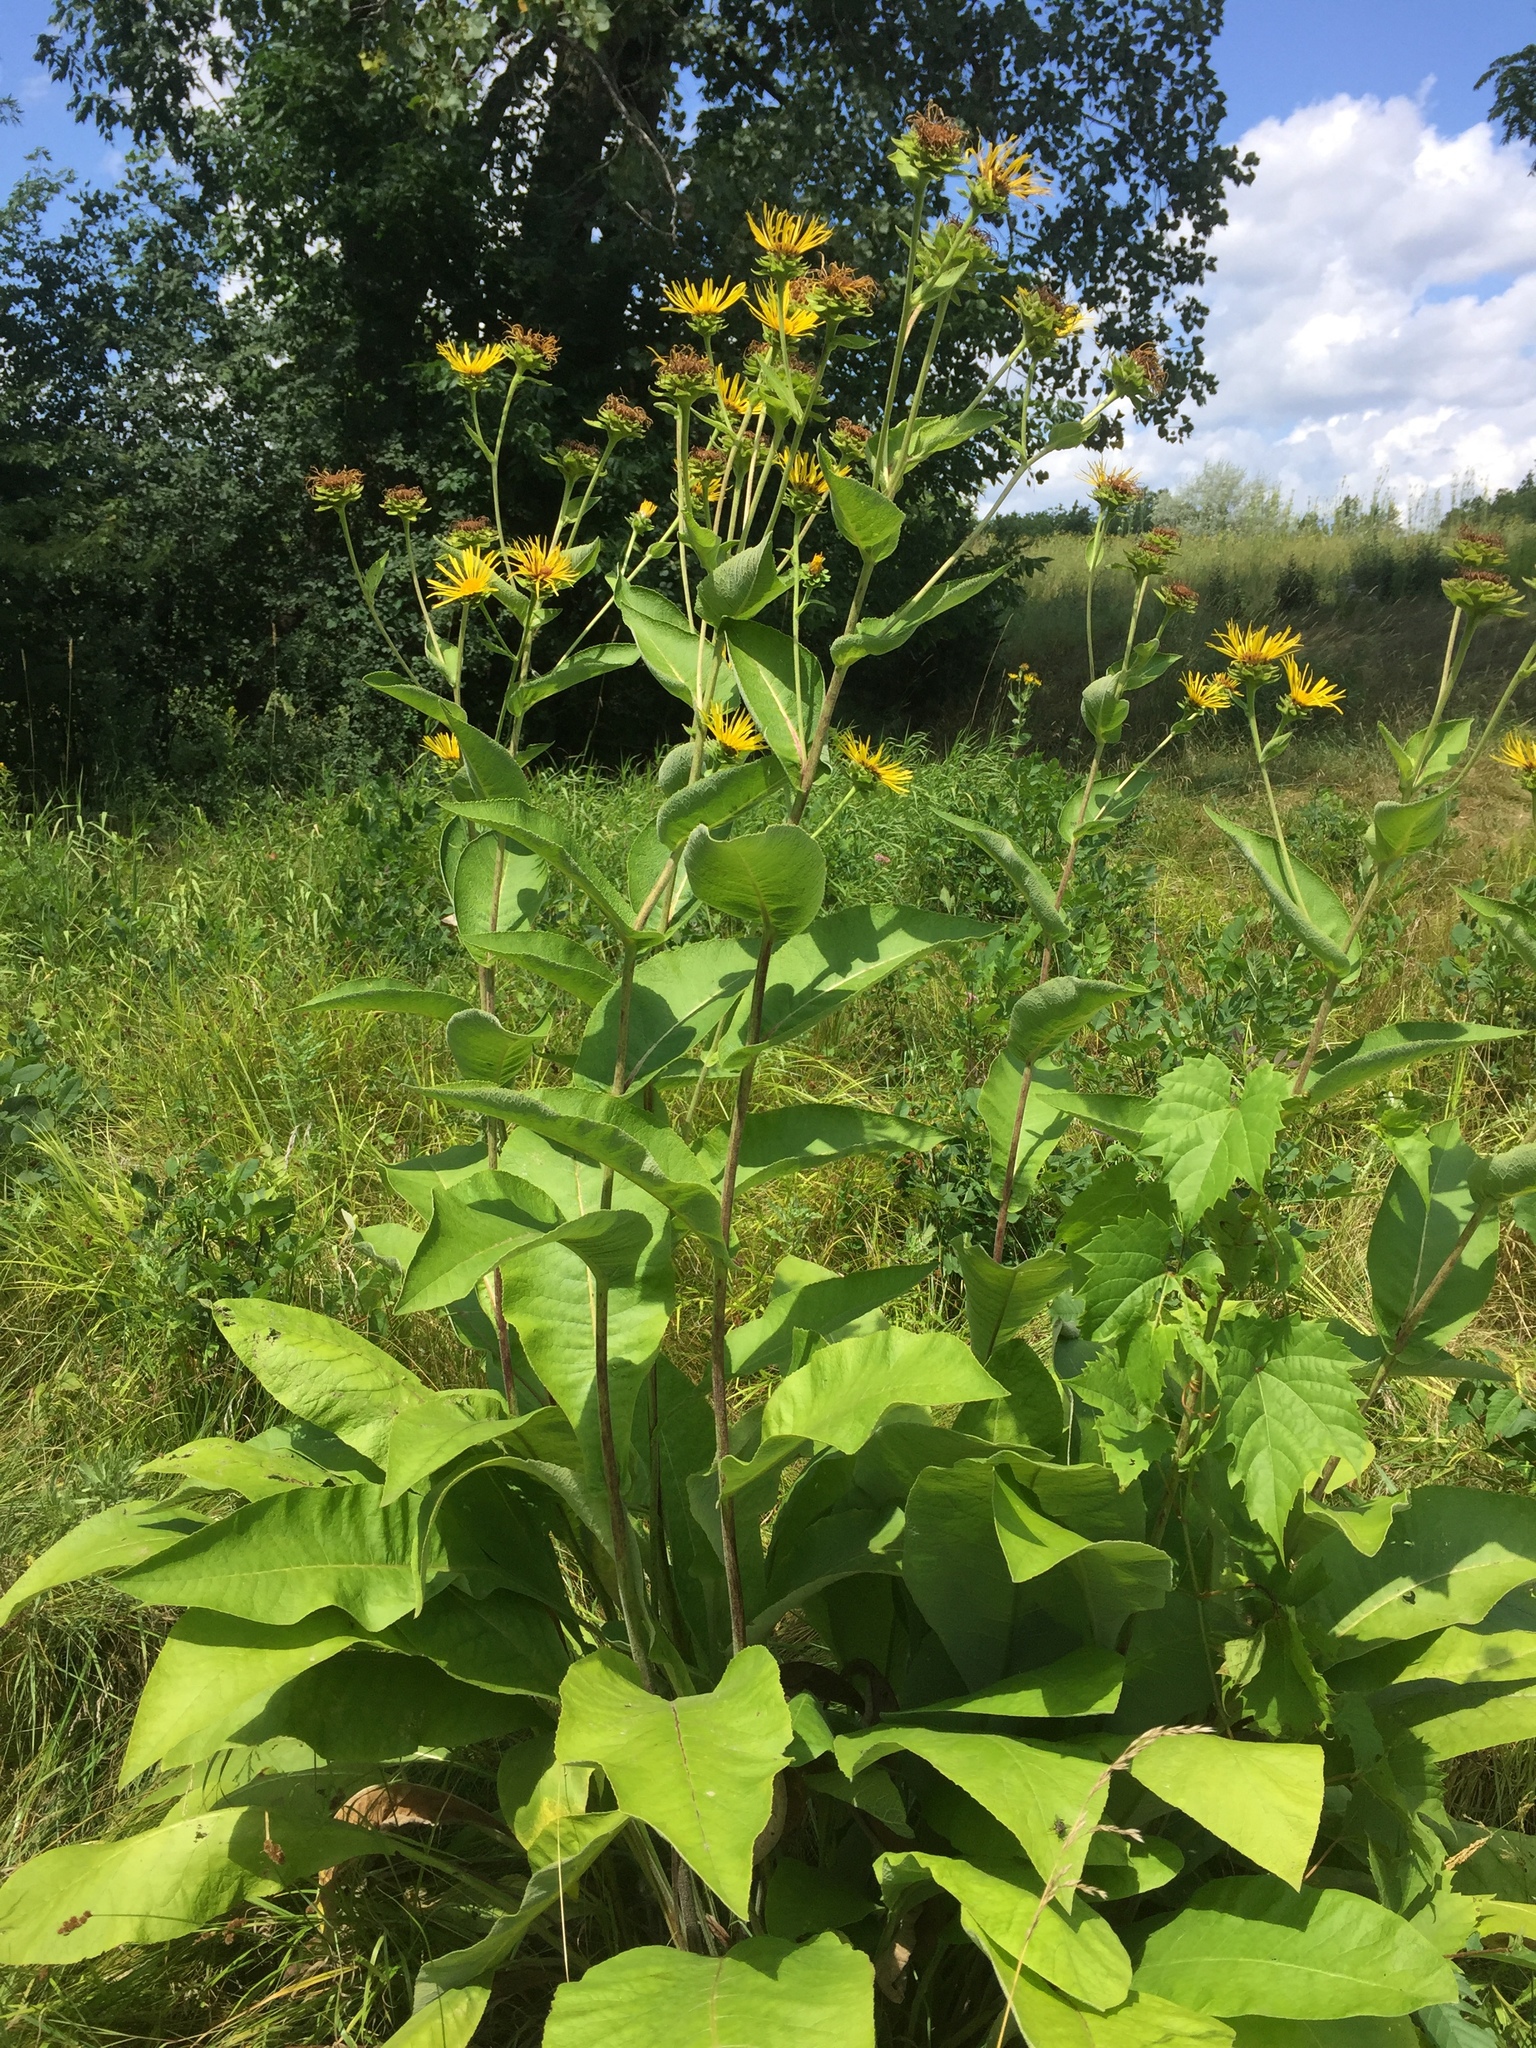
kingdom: Plantae
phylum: Tracheophyta
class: Magnoliopsida
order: Asterales
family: Asteraceae
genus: Inula
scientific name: Inula helenium
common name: Elecampane
